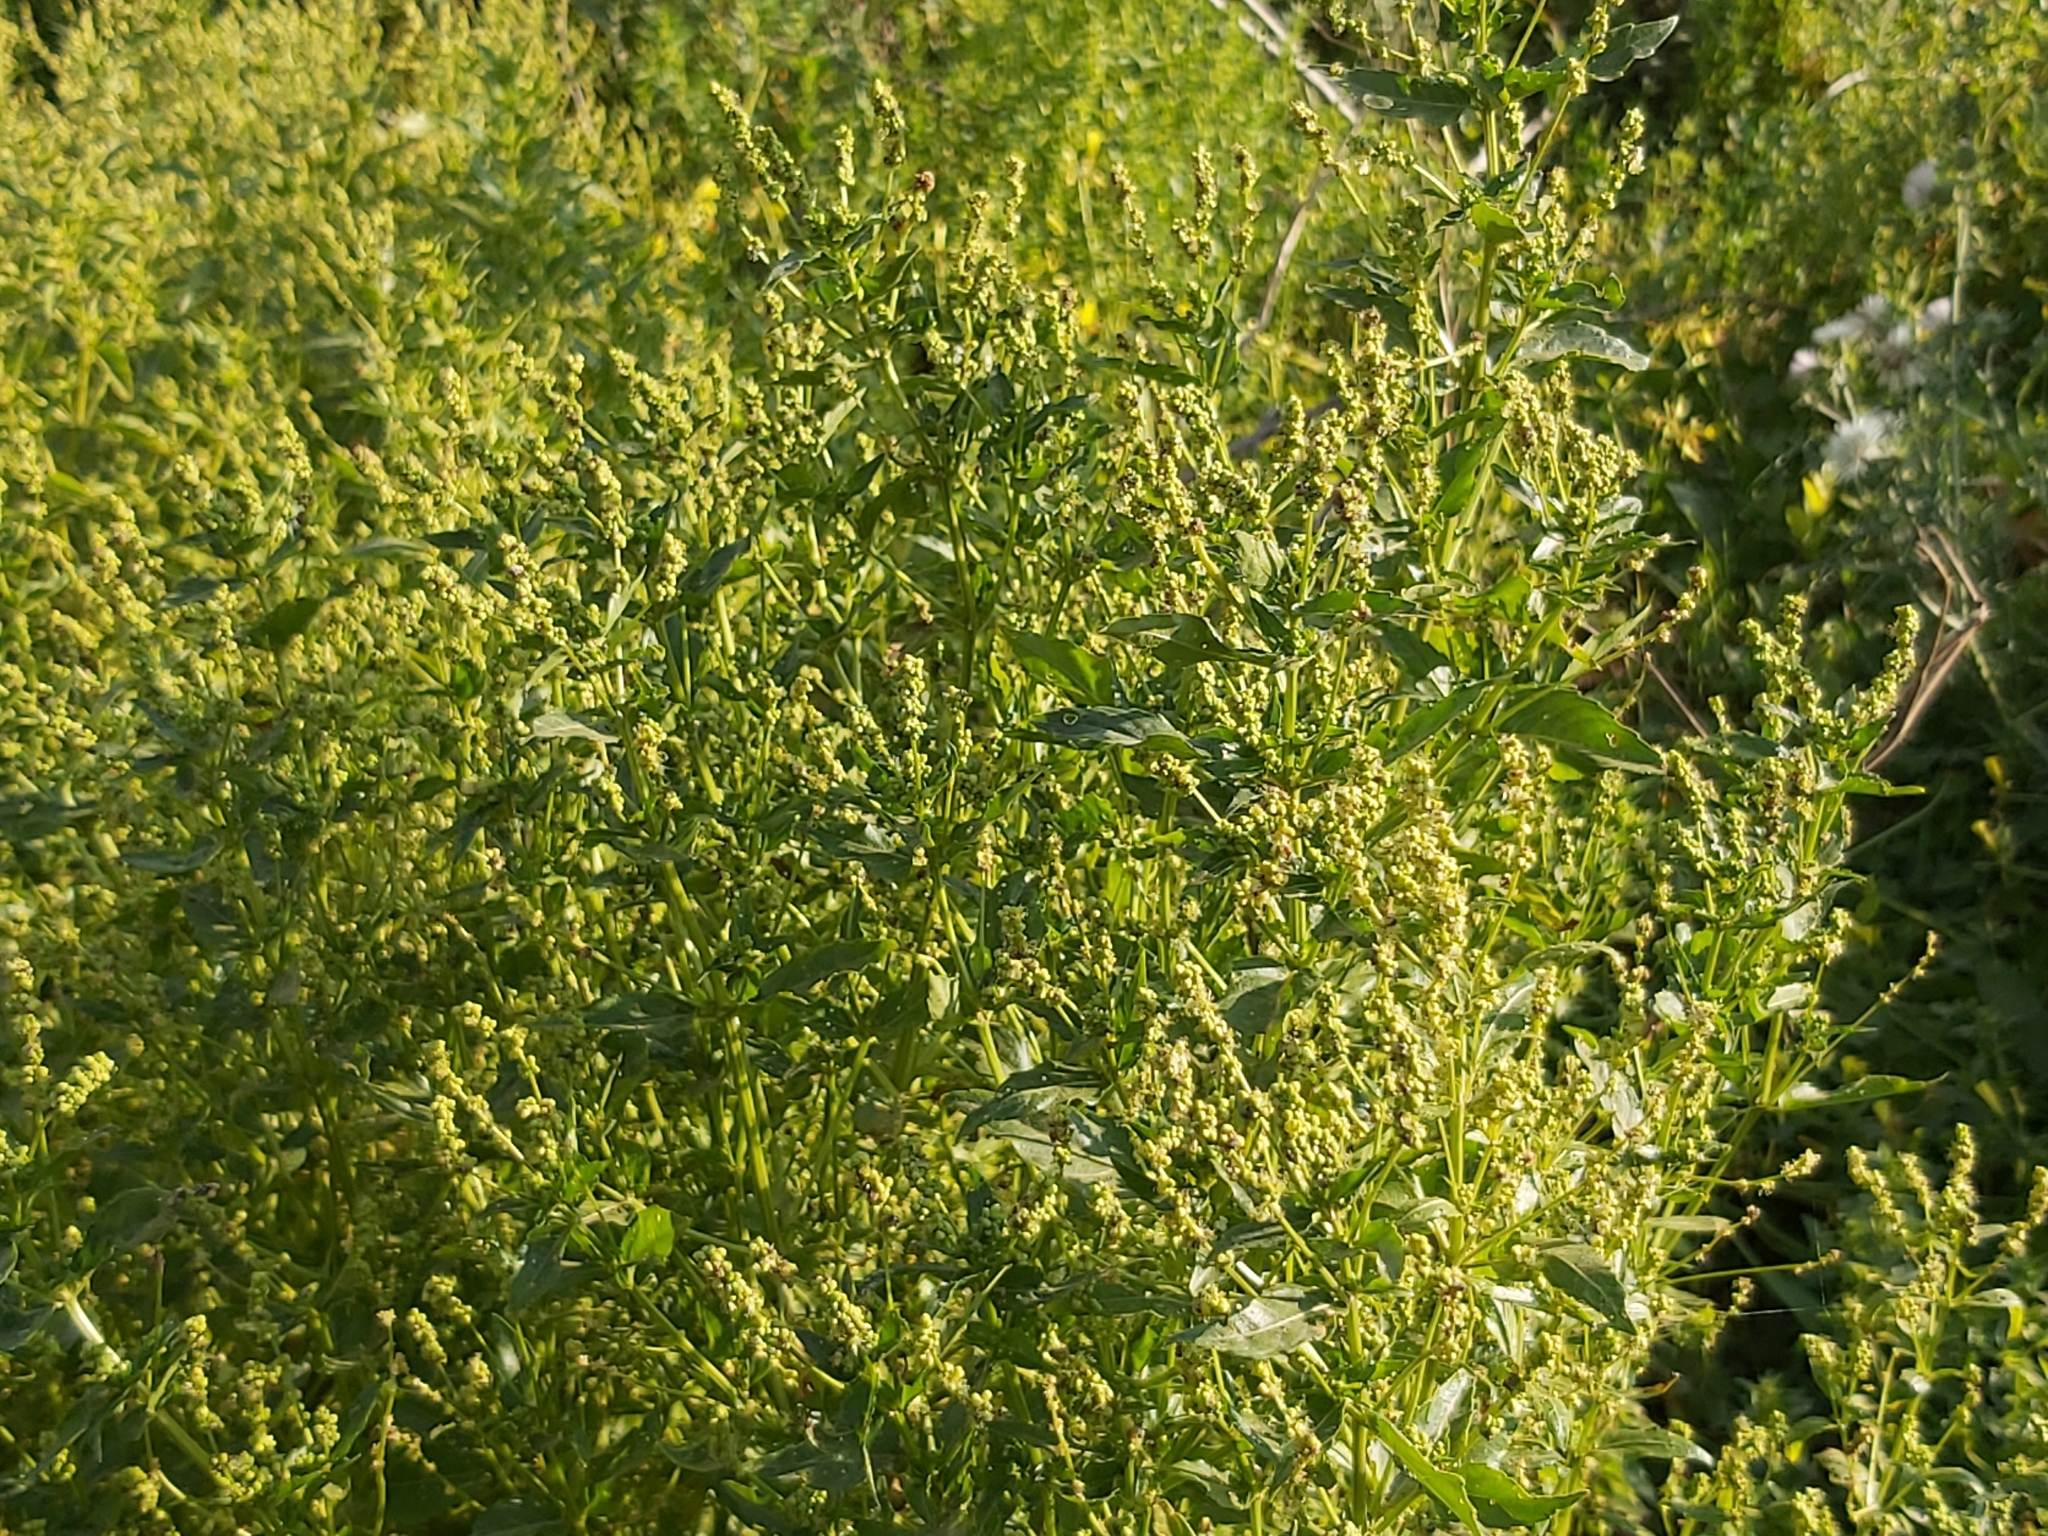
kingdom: Plantae
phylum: Tracheophyta
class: Magnoliopsida
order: Malpighiales
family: Euphorbiaceae
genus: Mercurialis
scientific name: Mercurialis annua
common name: Annual mercury
